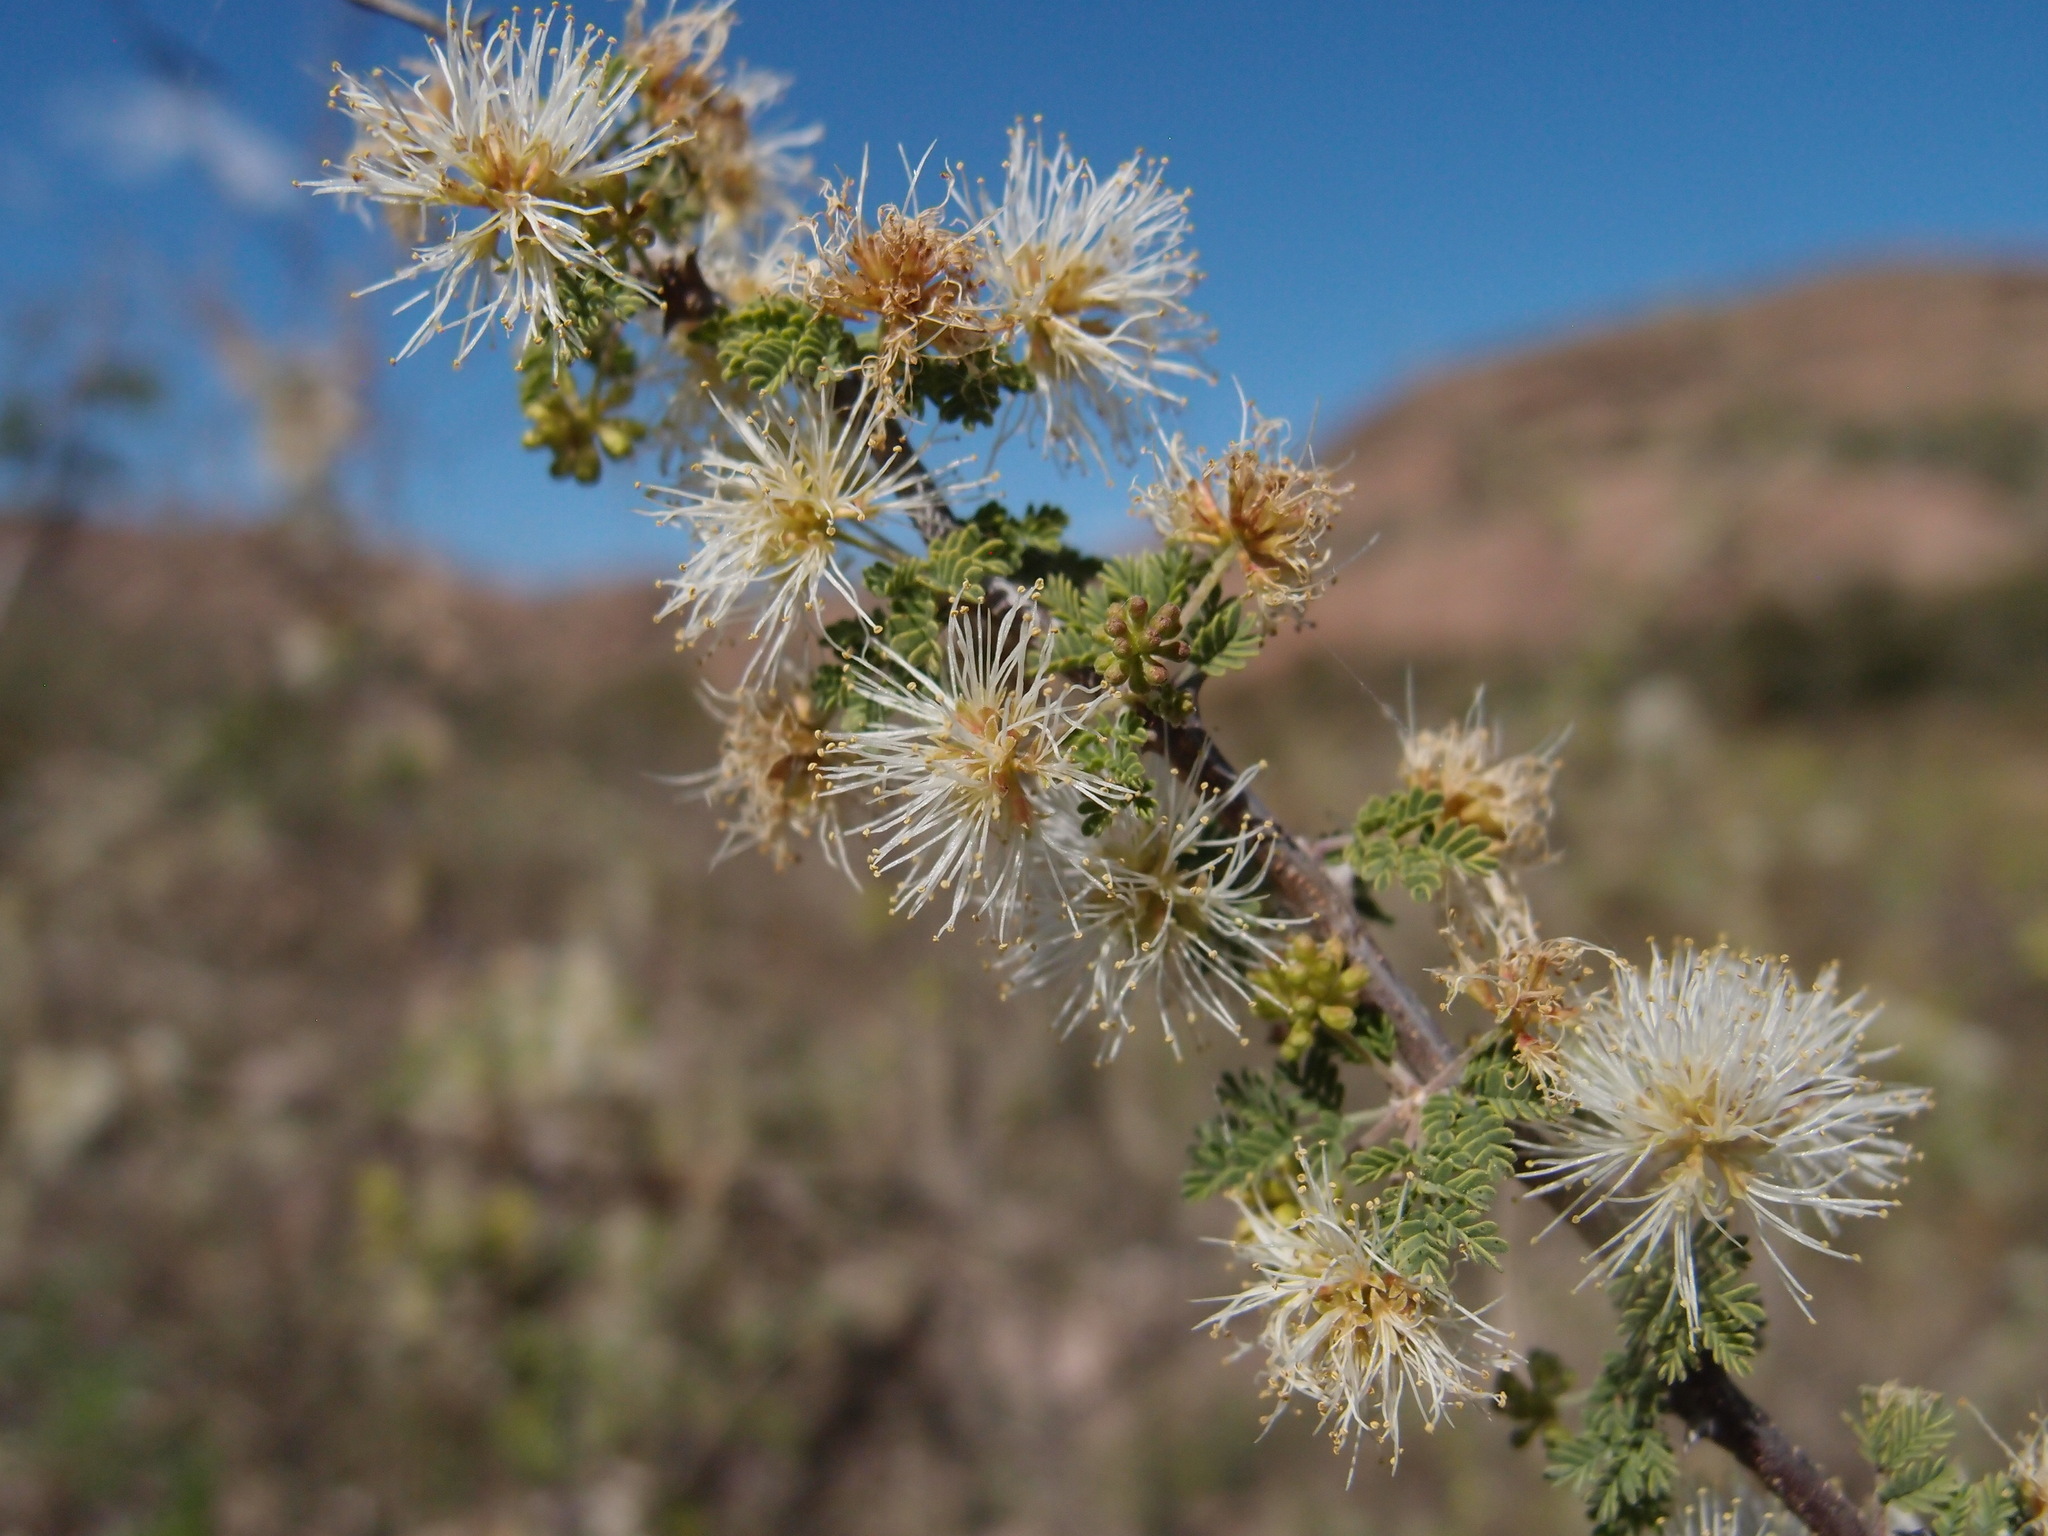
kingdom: Plantae
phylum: Tracheophyta
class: Magnoliopsida
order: Fabales
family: Fabaceae
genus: Mimosa
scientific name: Mimosa biuncifera
